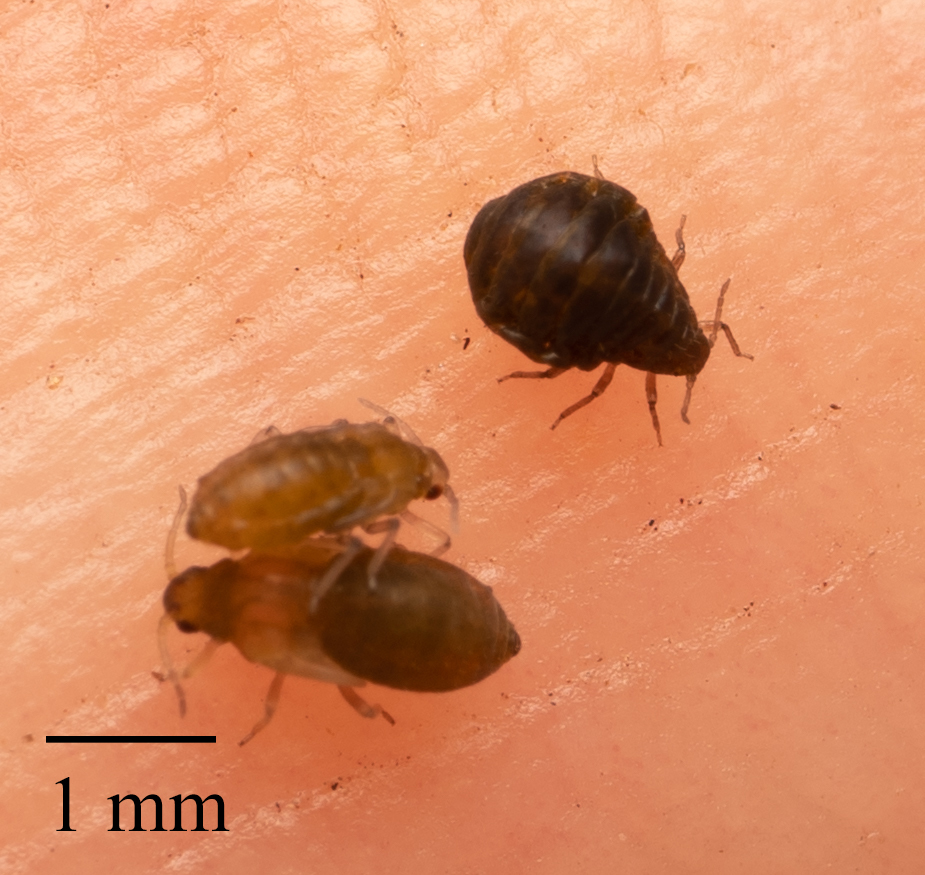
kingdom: Animalia
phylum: Arthropoda
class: Insecta
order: Hemiptera
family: Aphididae
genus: Tamalia
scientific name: Tamalia coweni
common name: Manzanita leafgall aphid
